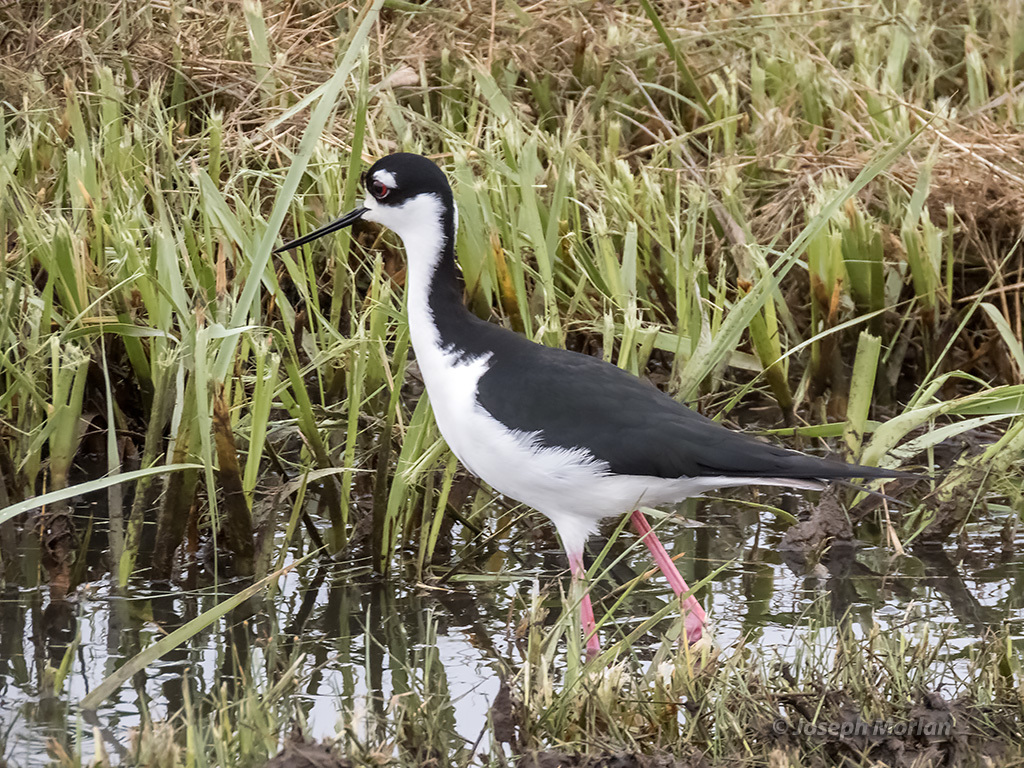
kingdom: Animalia
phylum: Chordata
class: Aves
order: Charadriiformes
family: Recurvirostridae
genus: Himantopus
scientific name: Himantopus mexicanus
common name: Black-necked stilt
